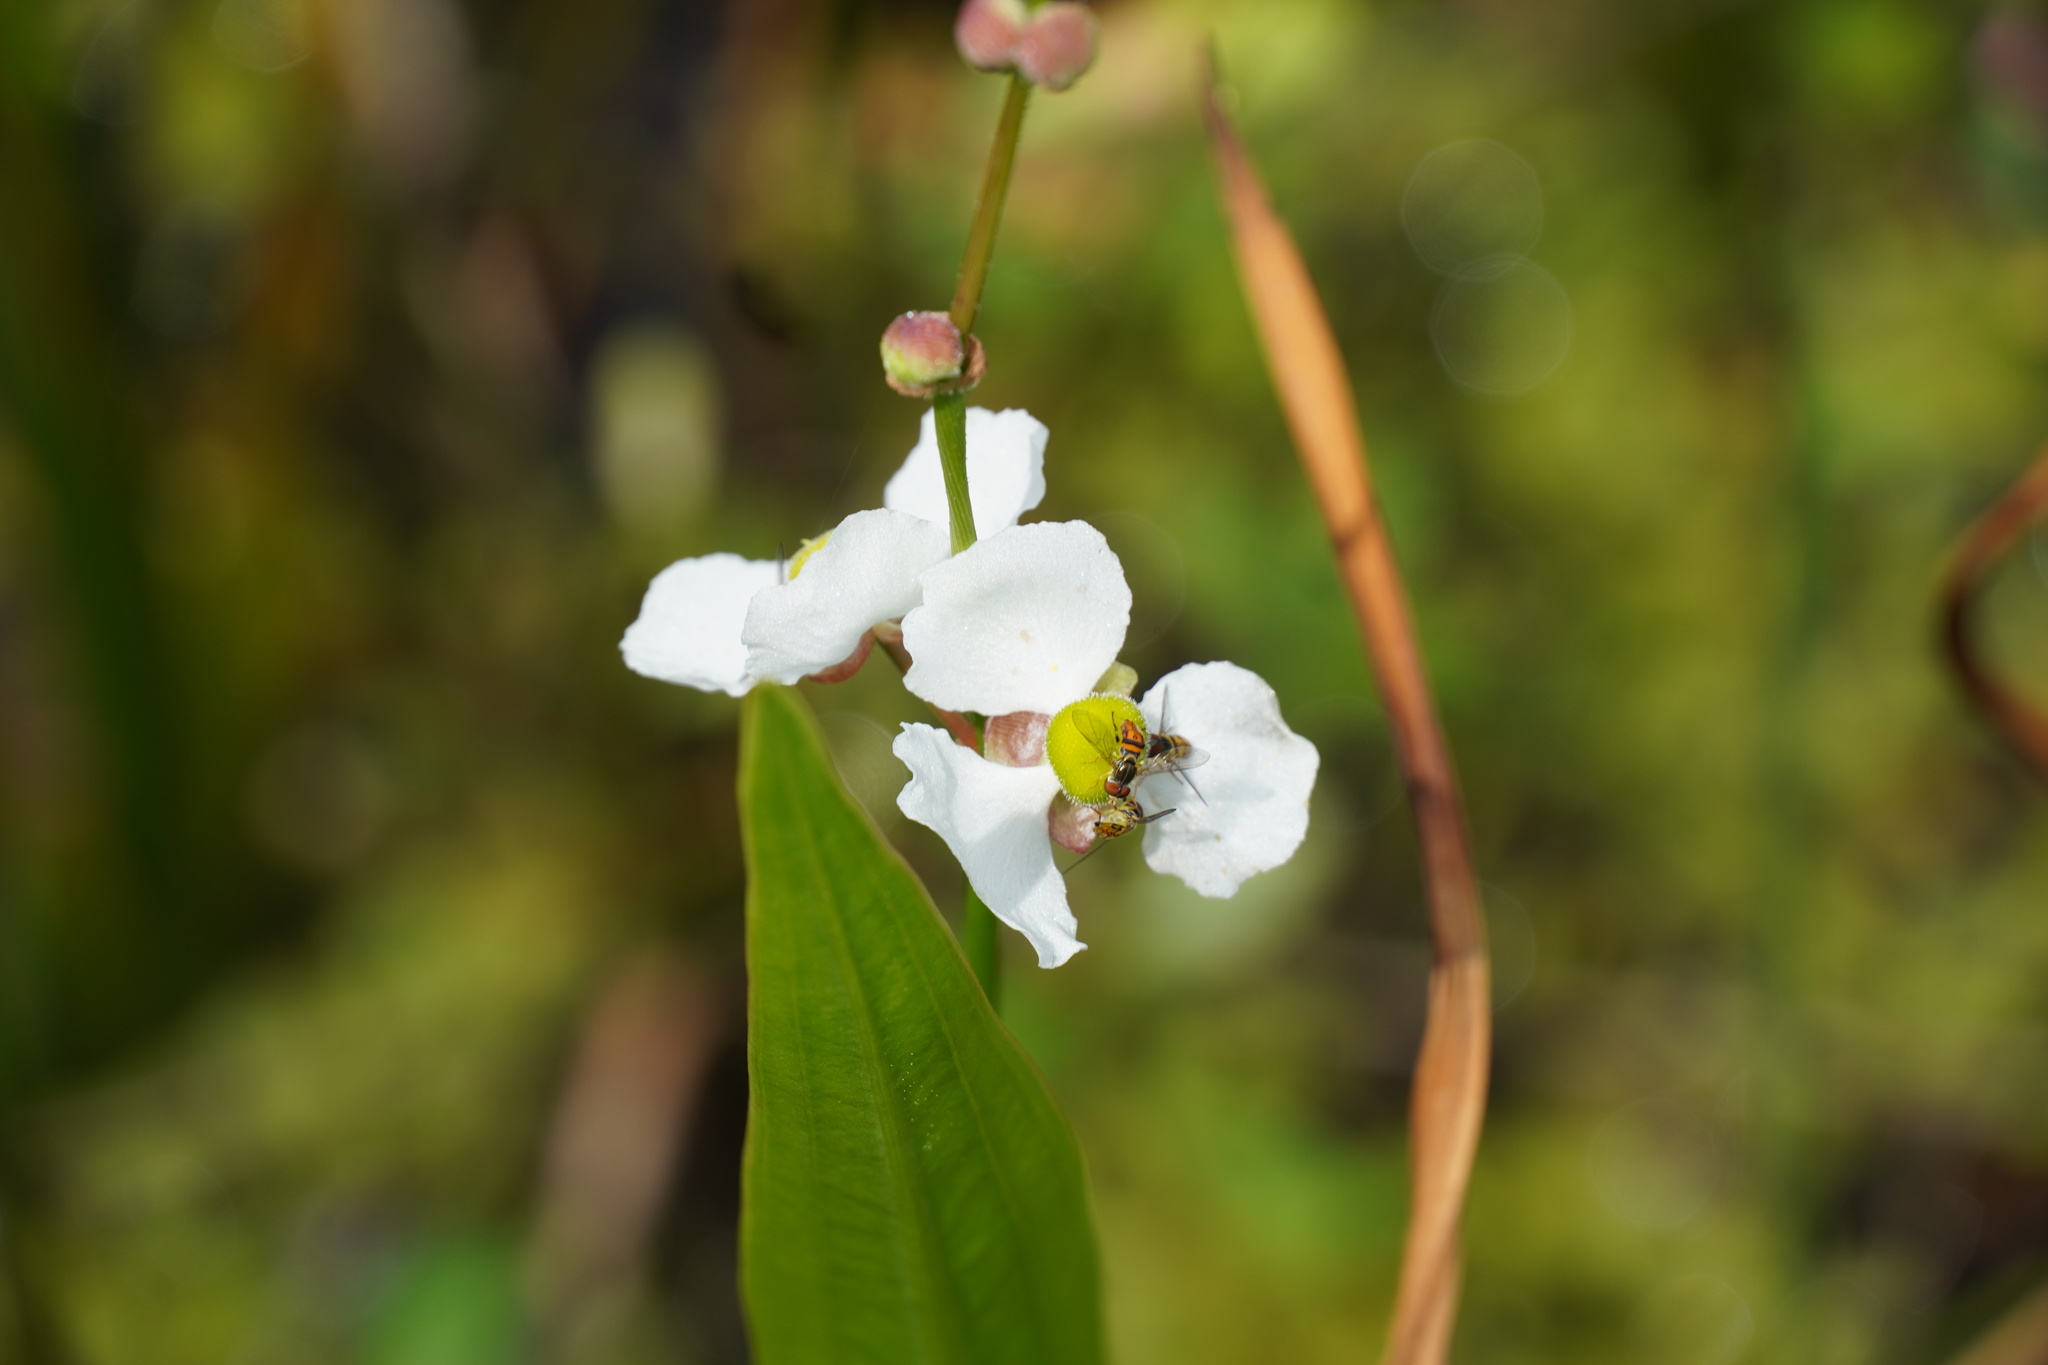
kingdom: Plantae
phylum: Tracheophyta
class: Liliopsida
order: Alismatales
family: Alismataceae
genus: Sagittaria
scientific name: Sagittaria lancifolia
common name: Lance-leaf arrowhead
